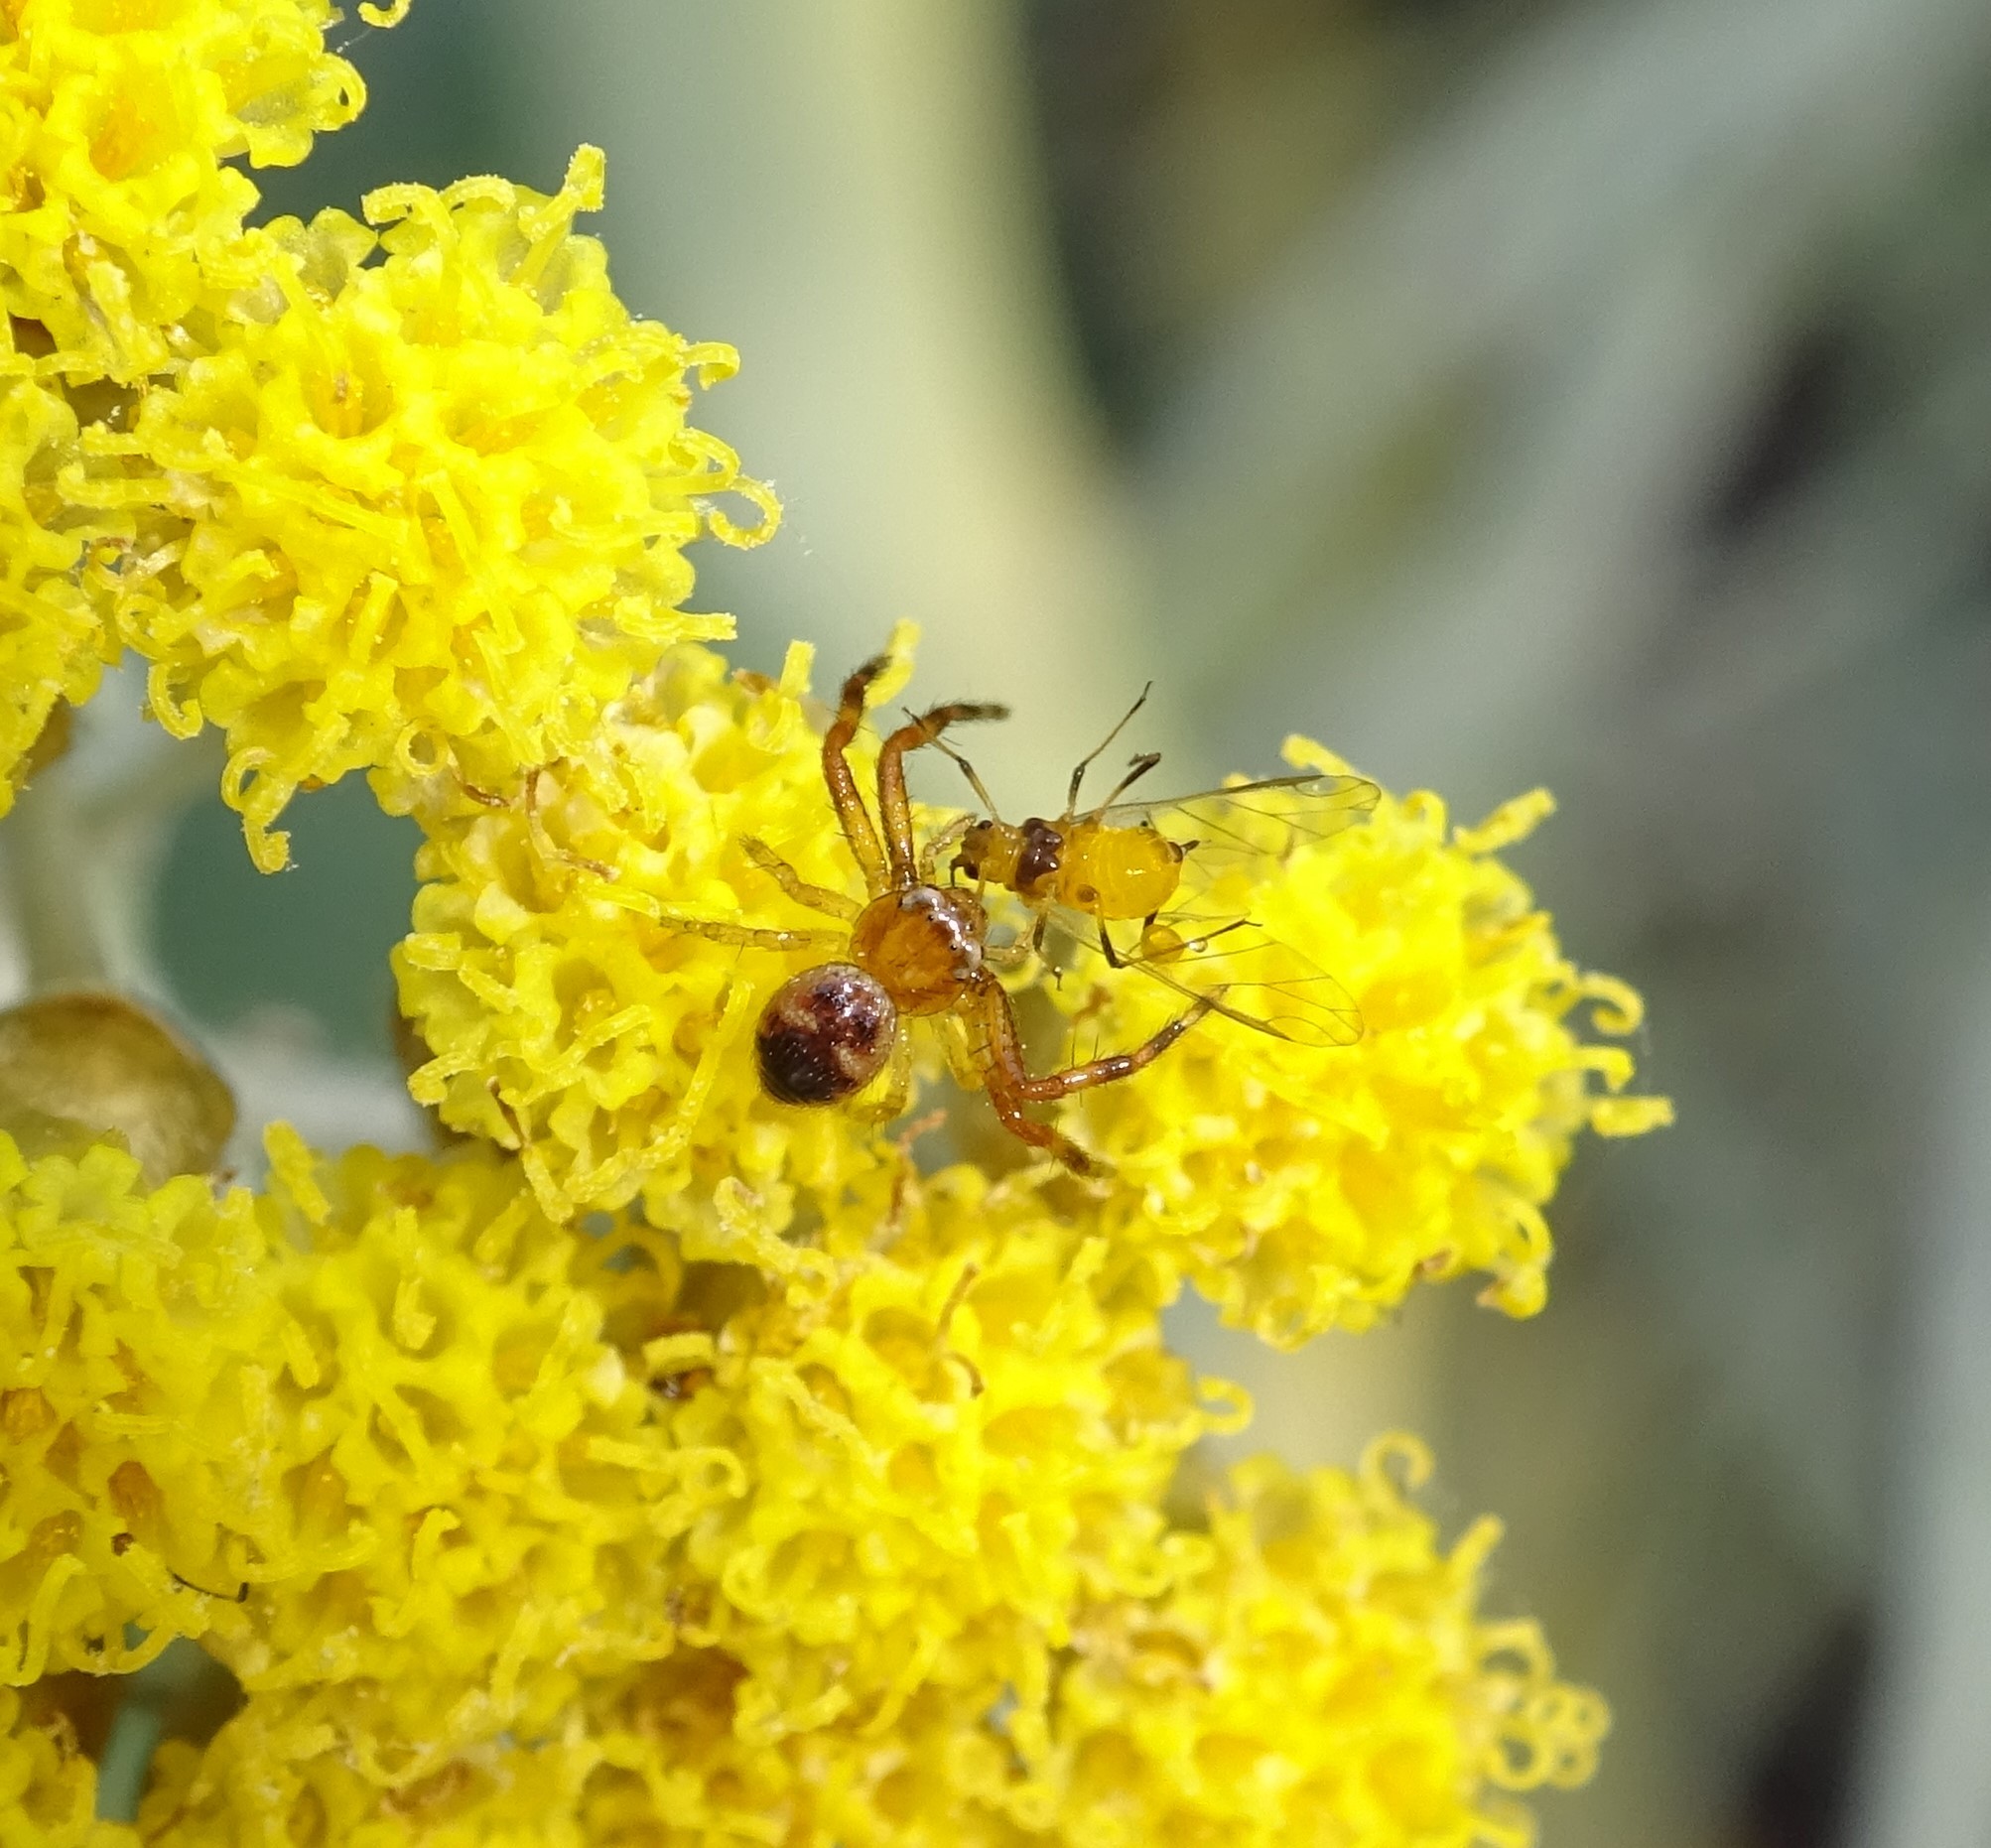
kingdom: Animalia
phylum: Arthropoda
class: Arachnida
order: Araneae
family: Thomisidae
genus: Synema
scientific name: Synema globosum
